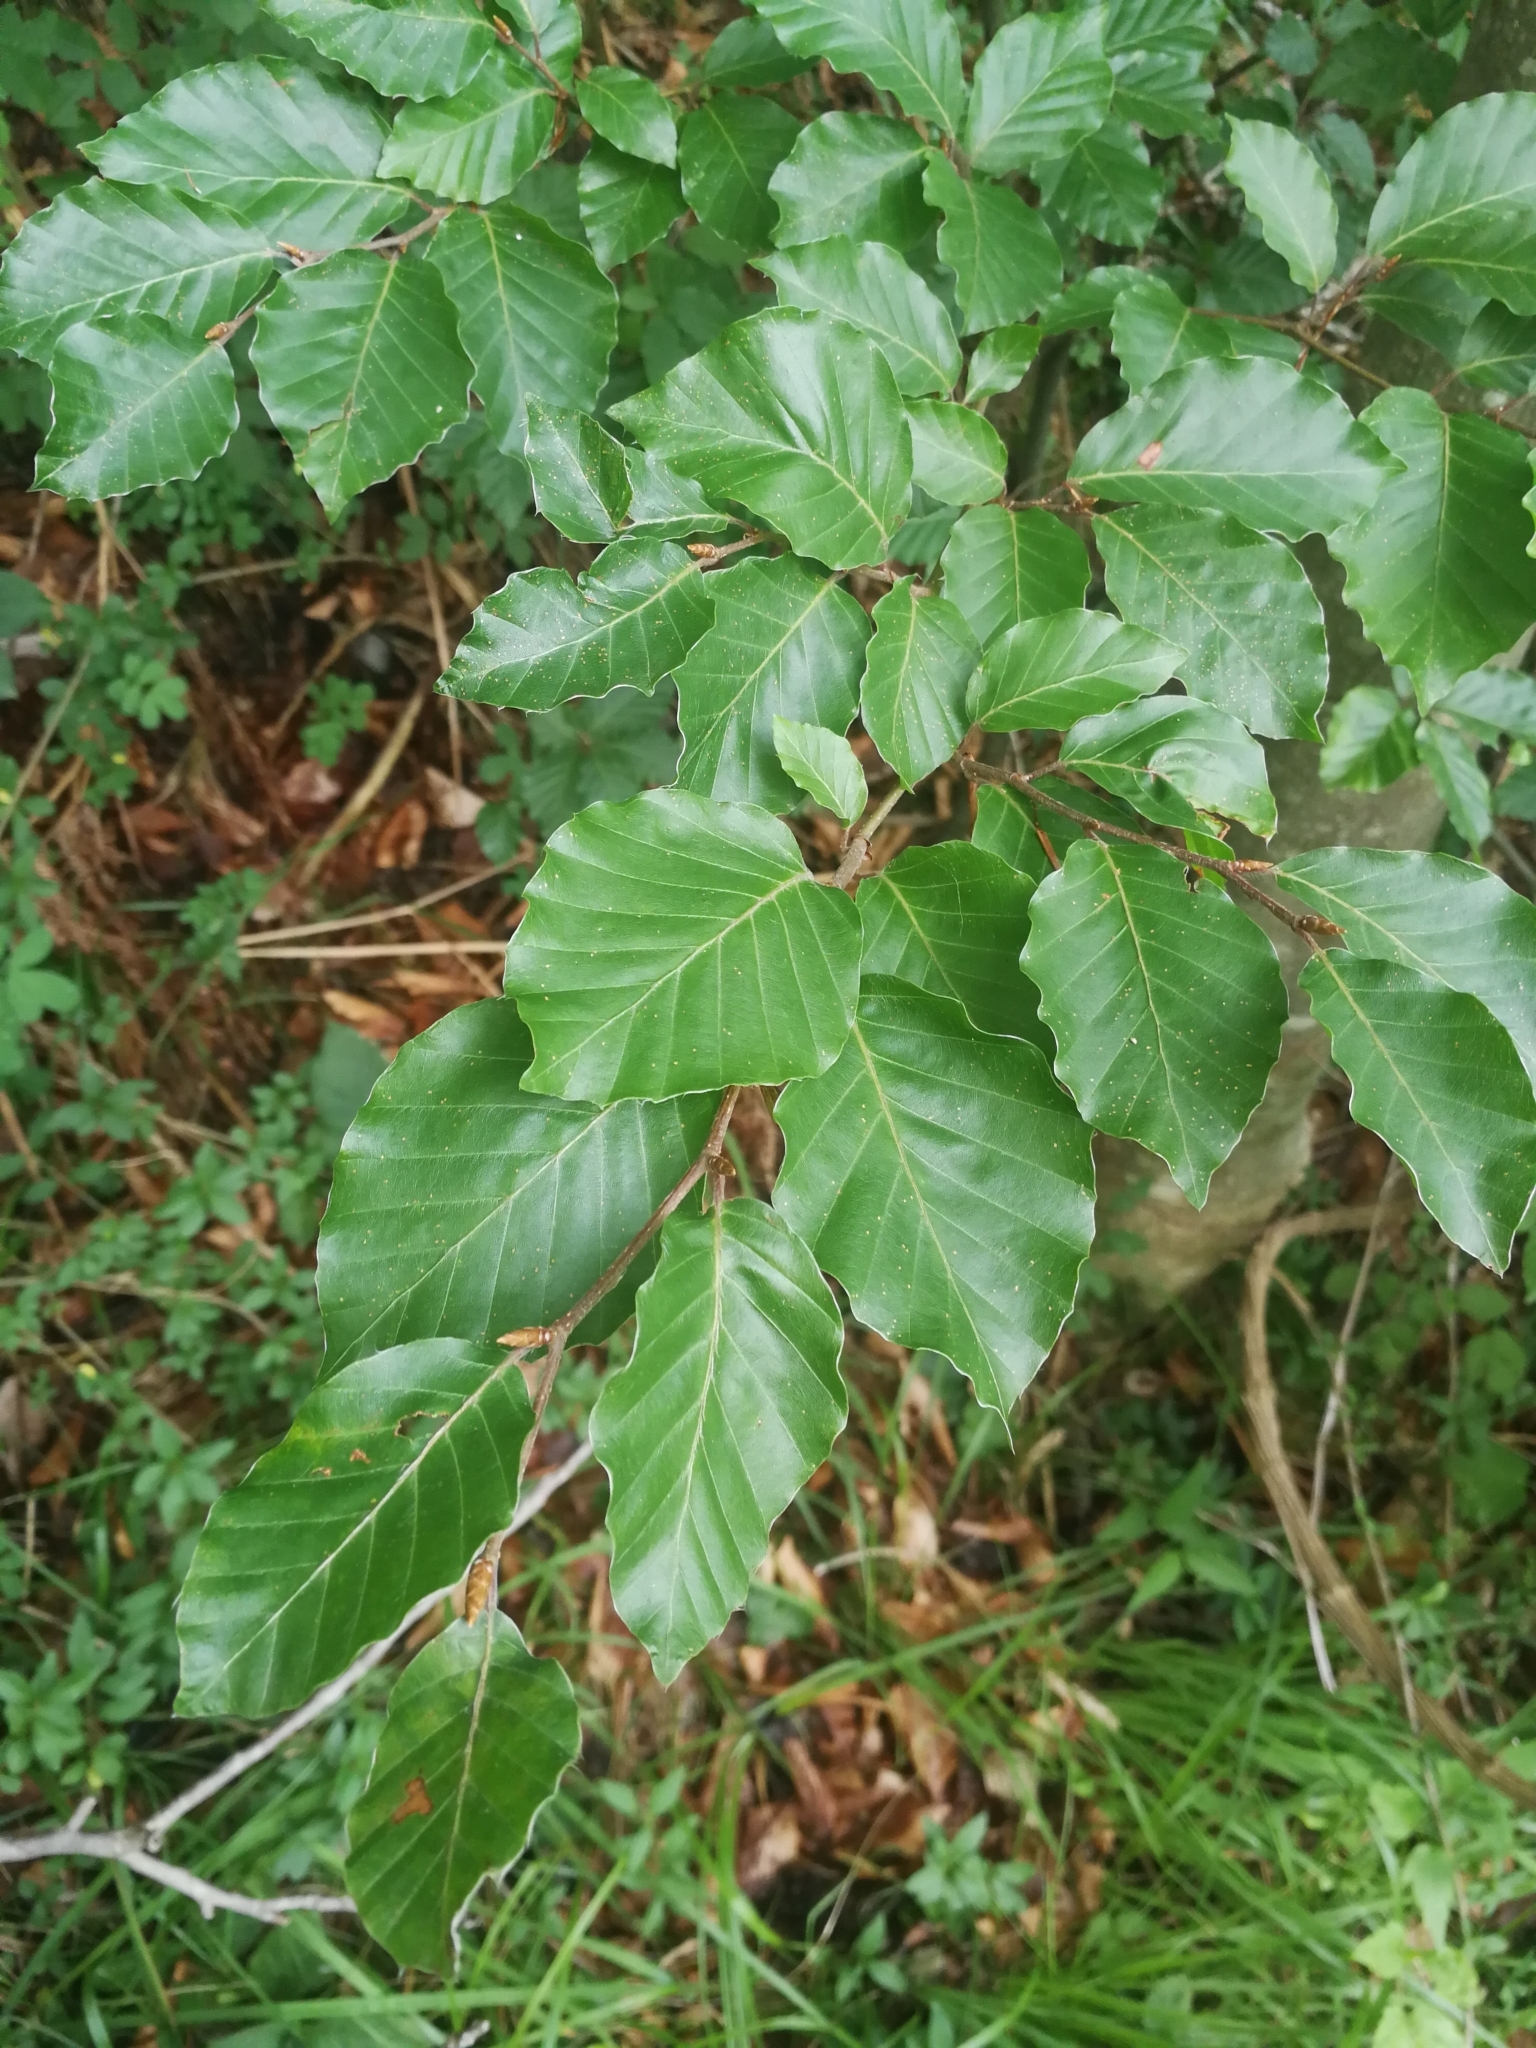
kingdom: Plantae
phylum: Tracheophyta
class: Magnoliopsida
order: Fagales
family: Fagaceae
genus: Fagus
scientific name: Fagus sylvatica
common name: Beech
